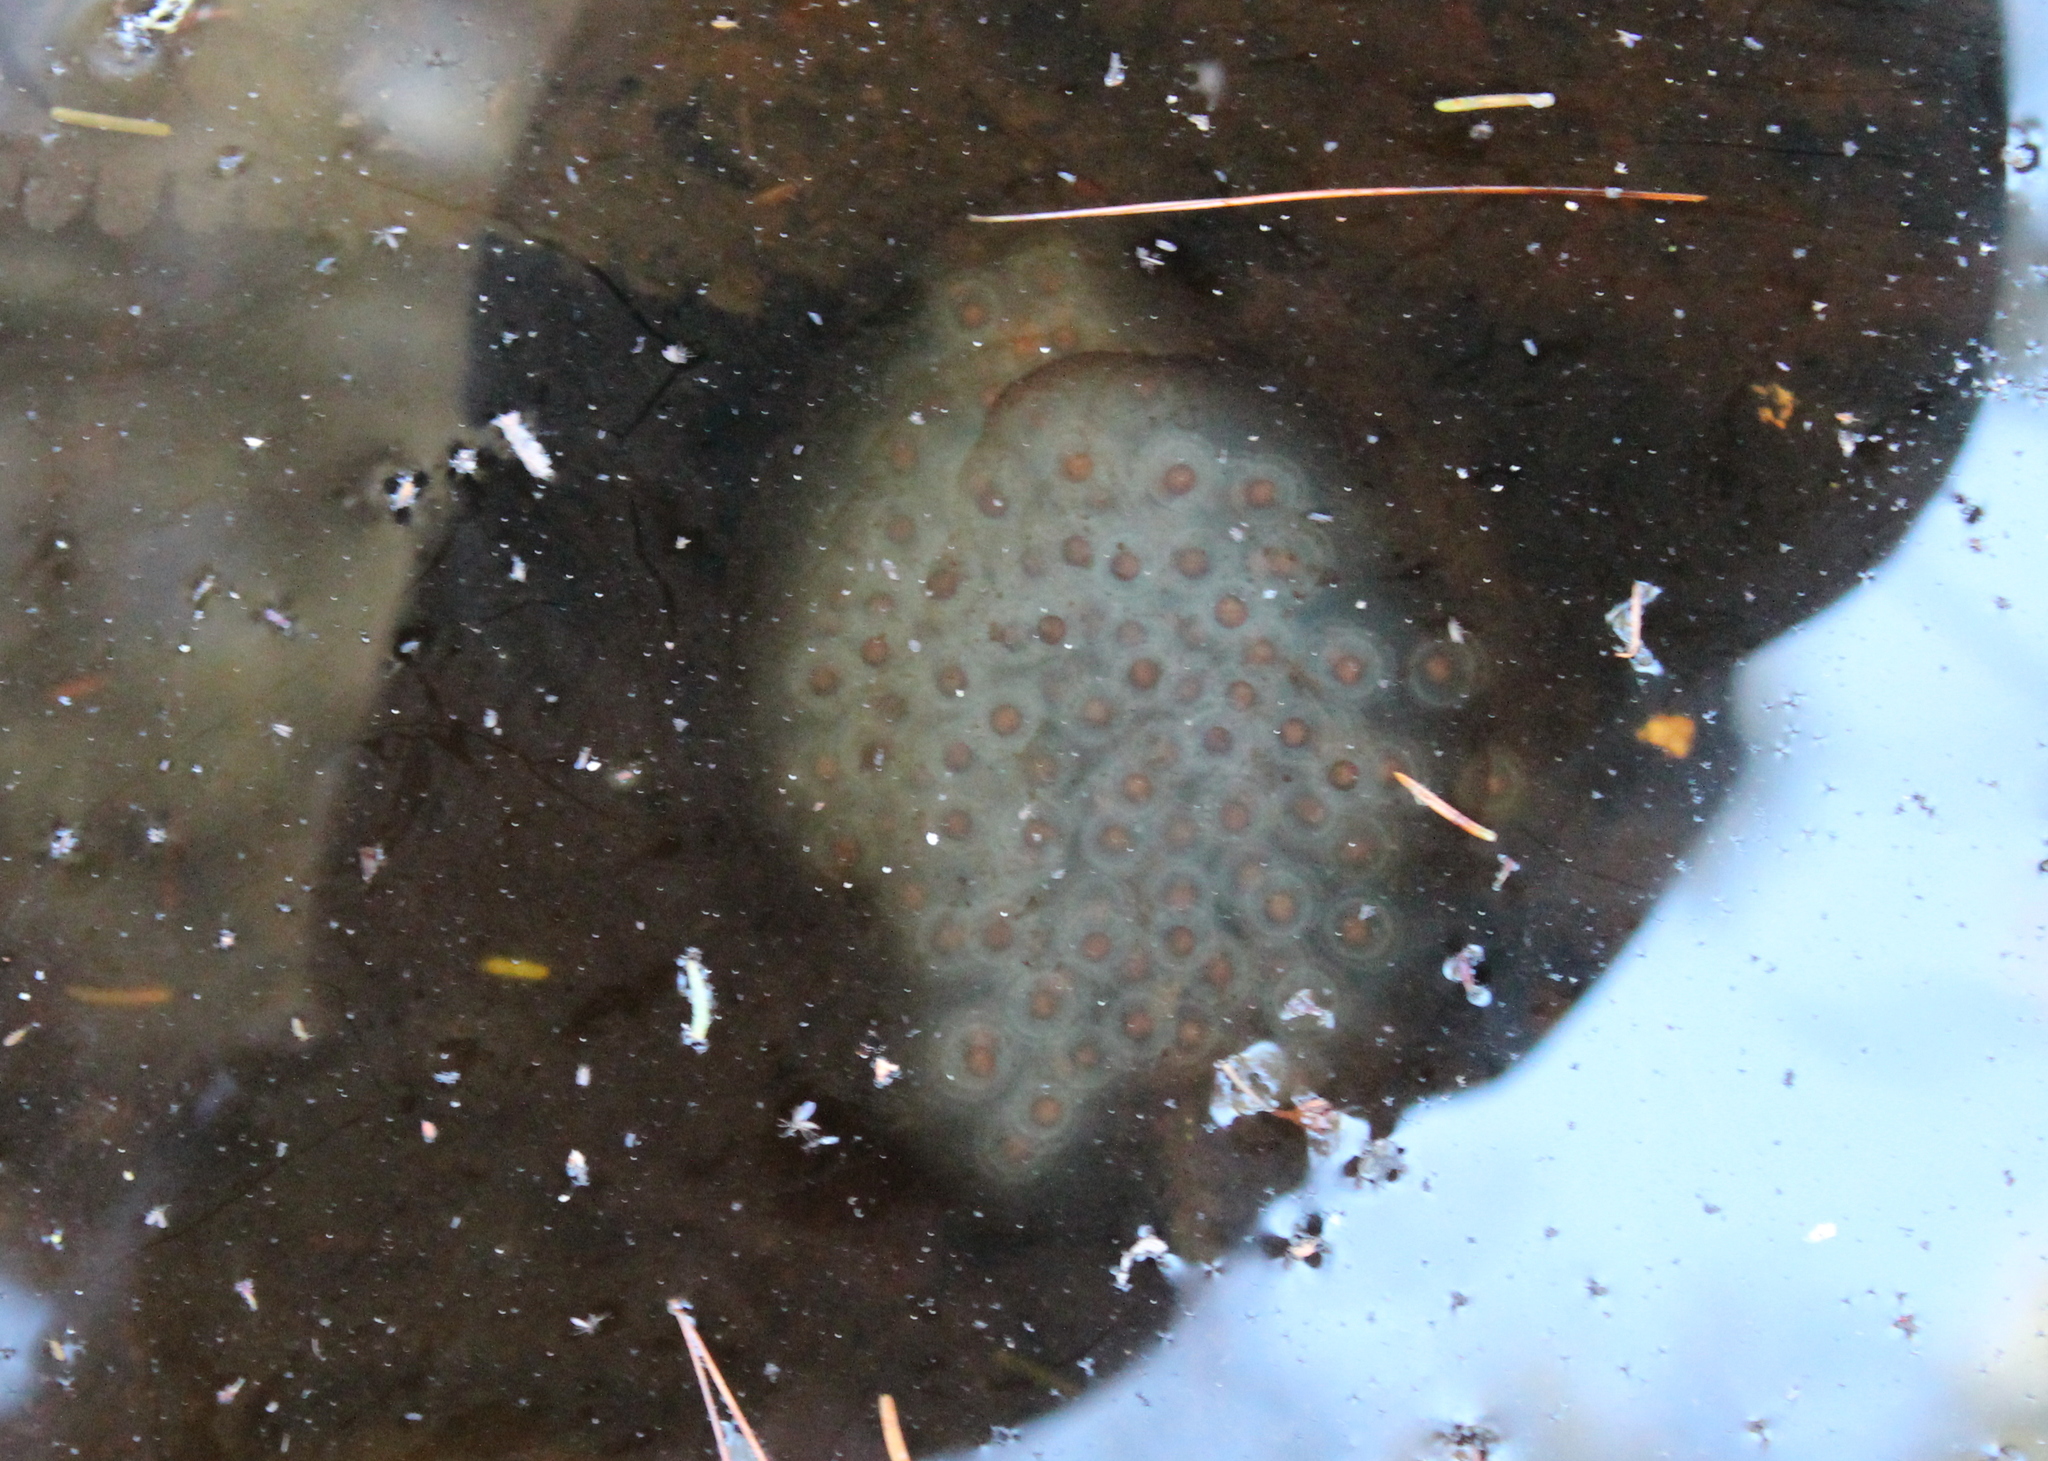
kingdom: Animalia
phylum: Chordata
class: Amphibia
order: Caudata
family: Ambystomatidae
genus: Ambystoma
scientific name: Ambystoma maculatum
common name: Spotted salamander
